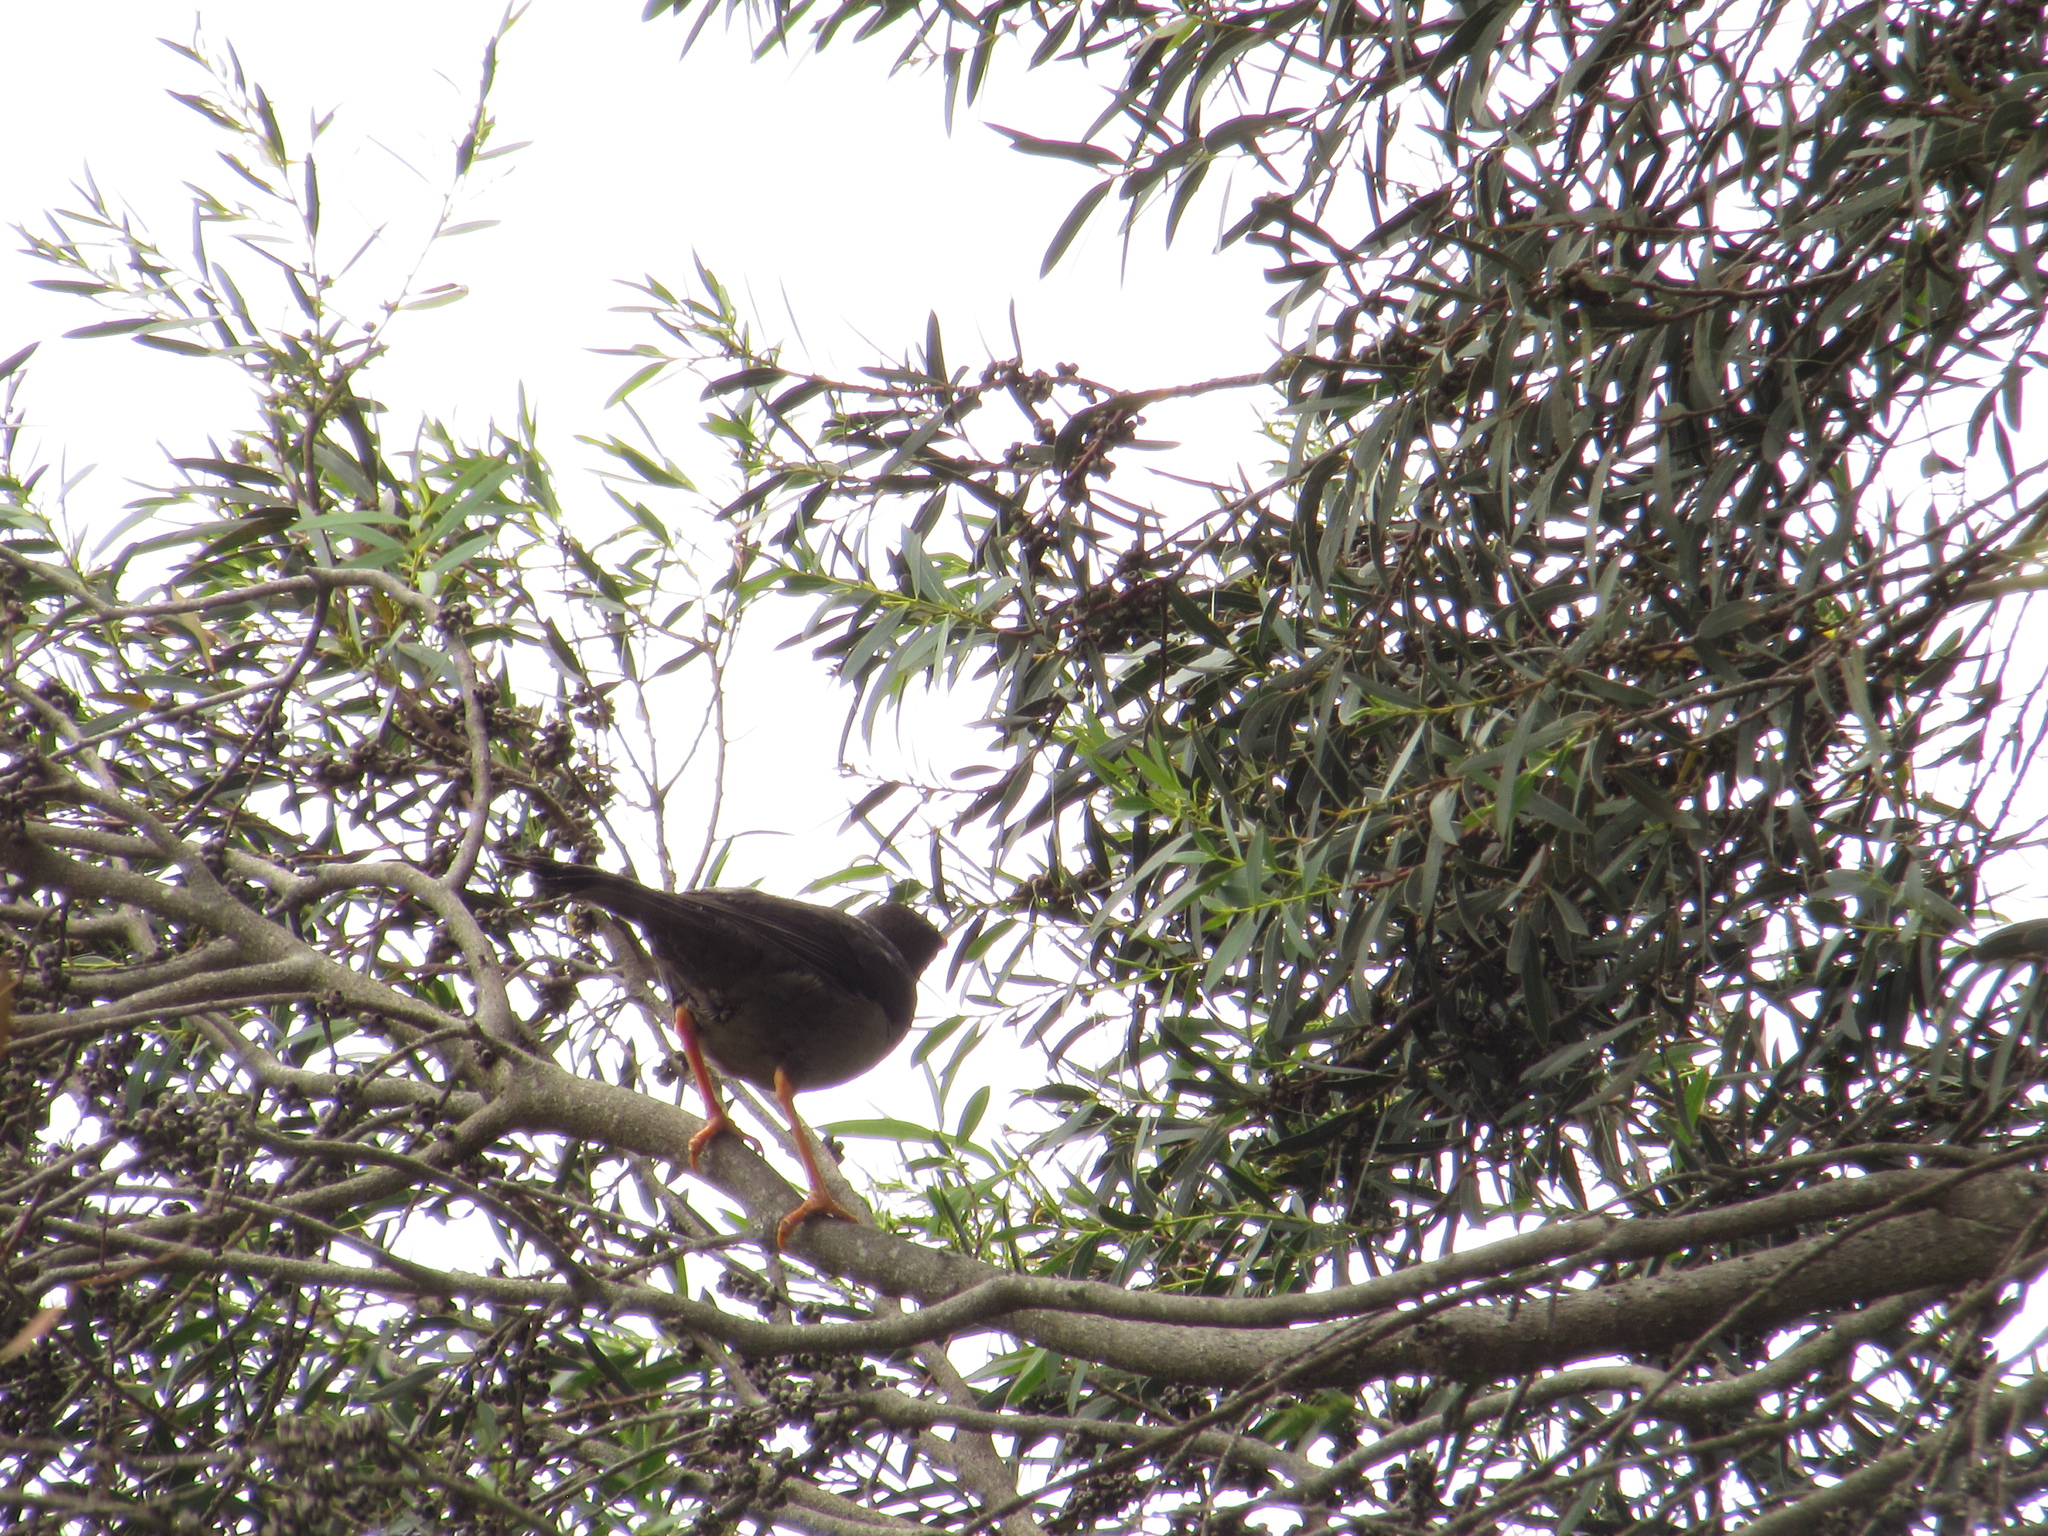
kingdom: Animalia
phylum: Chordata
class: Aves
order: Passeriformes
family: Turdidae
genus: Turdus
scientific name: Turdus fuscater
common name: Great thrush
